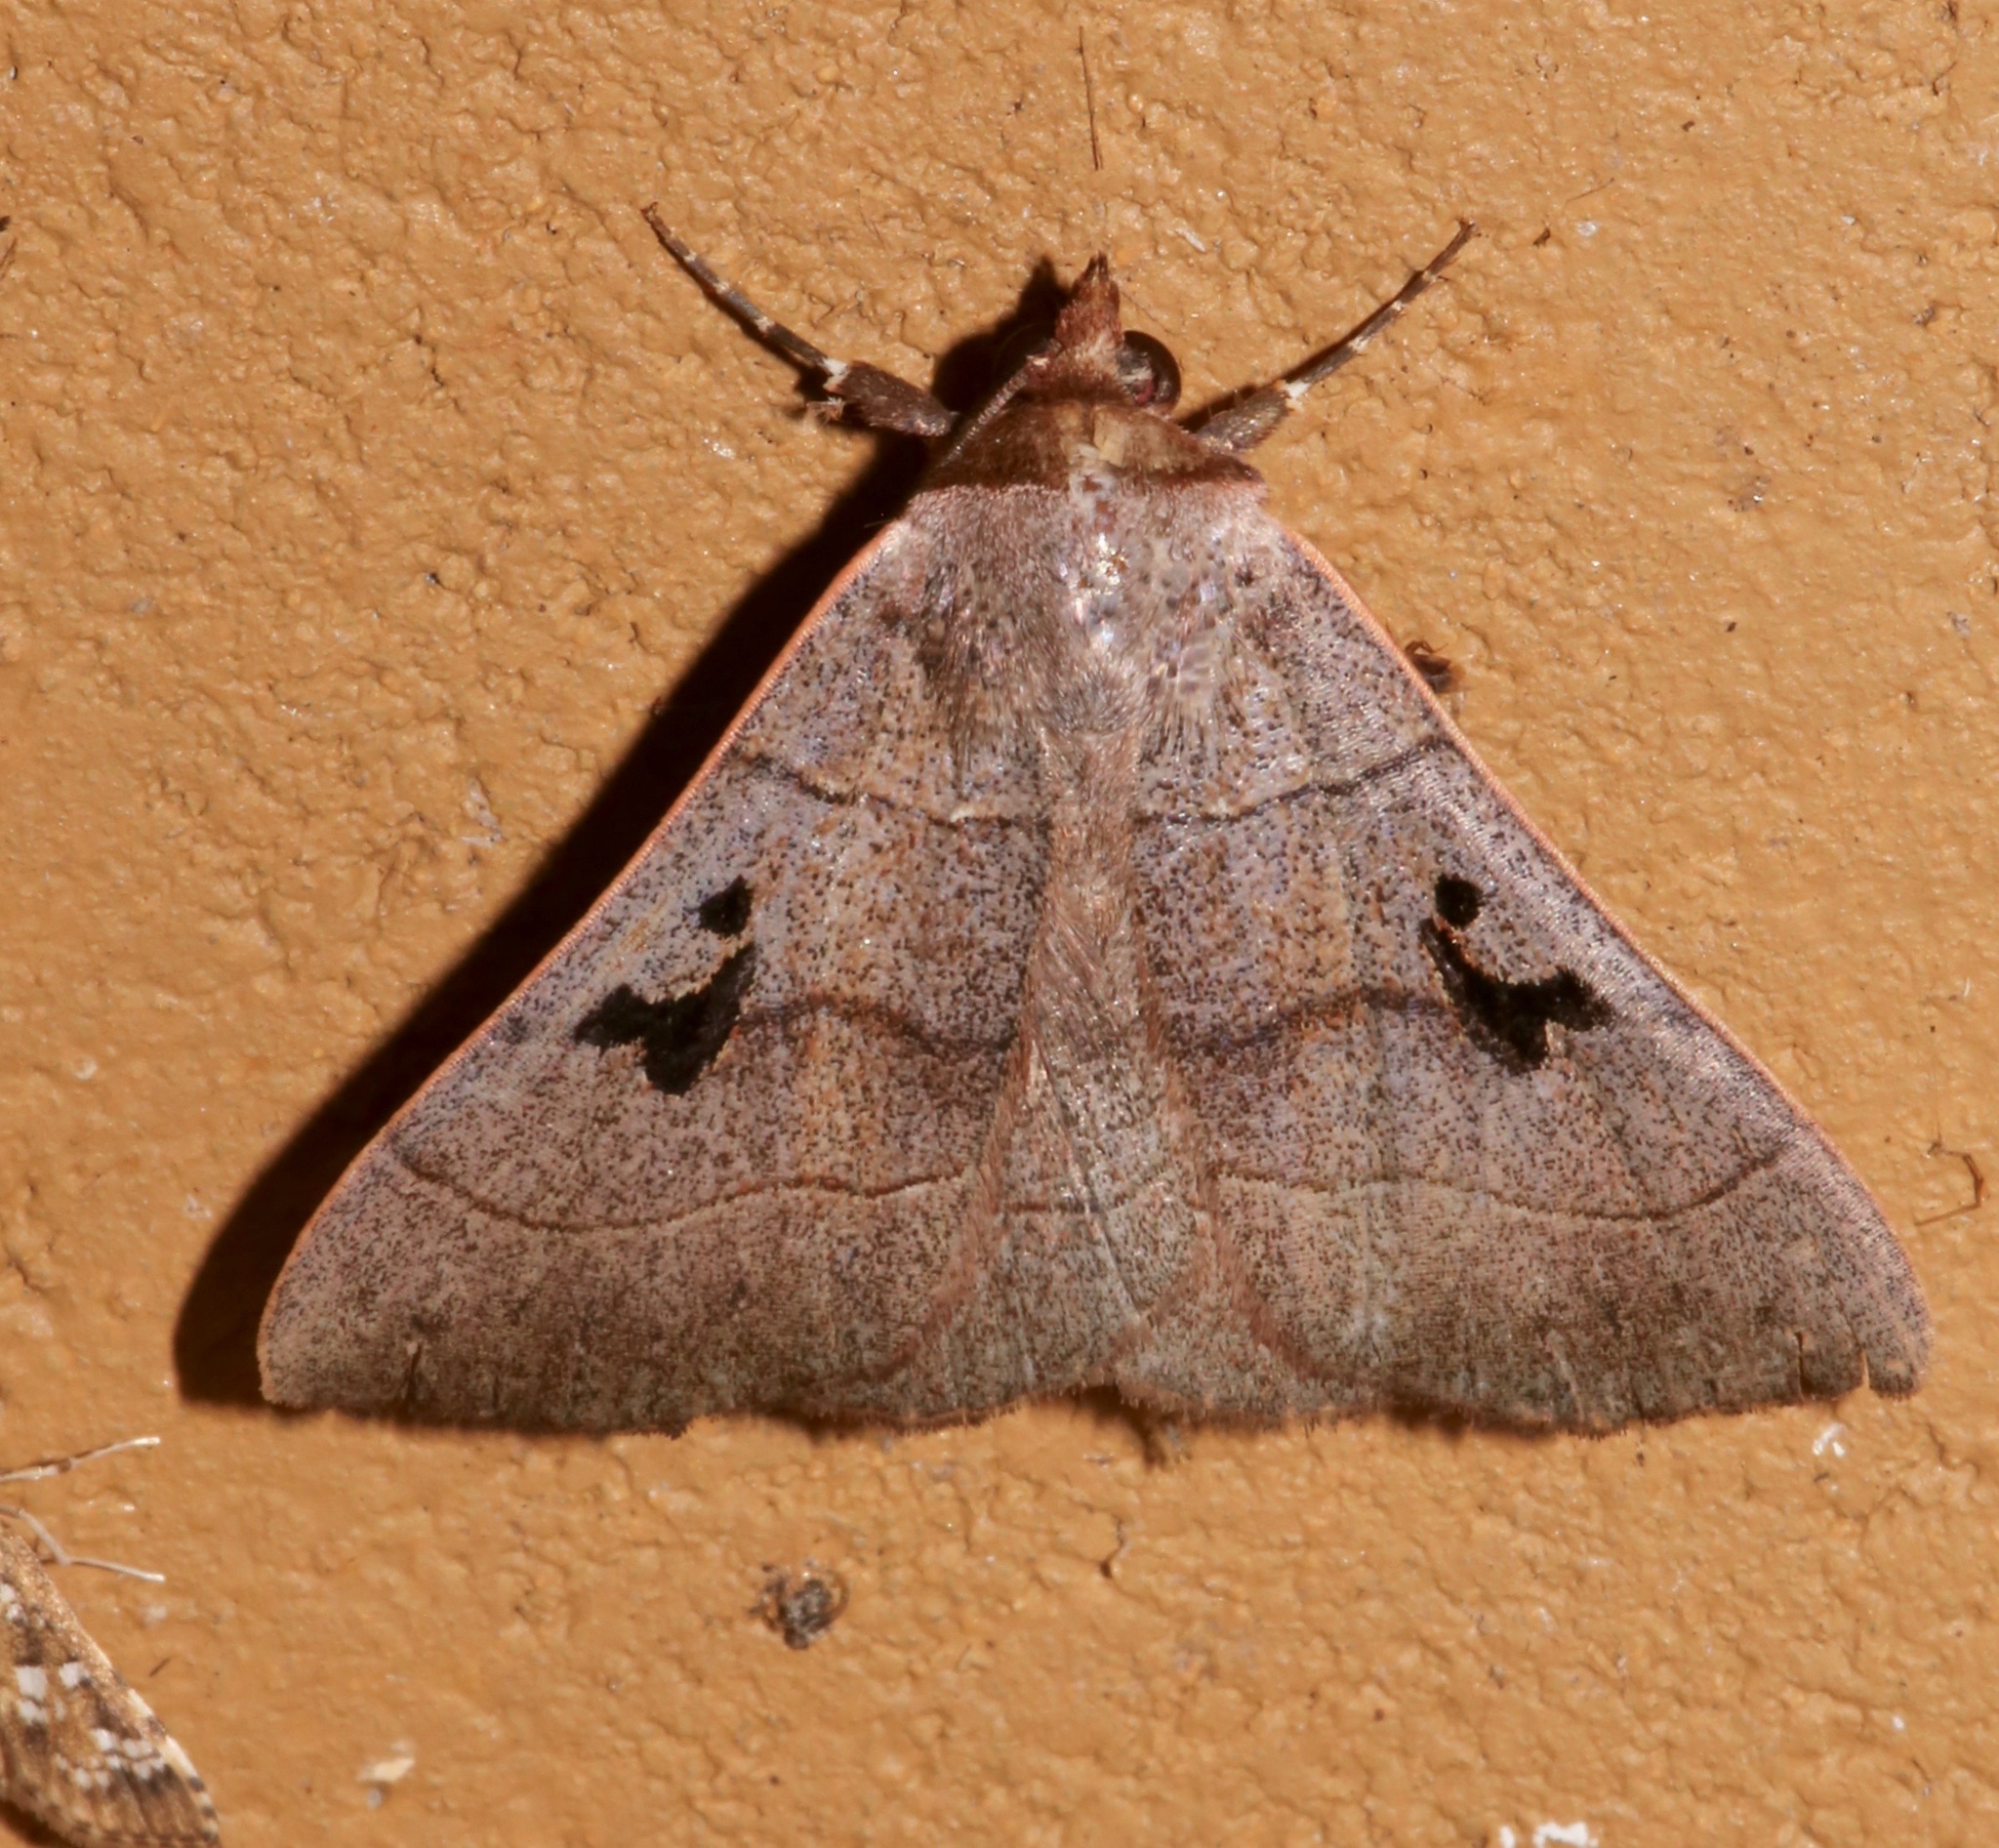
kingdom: Animalia
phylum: Arthropoda
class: Insecta
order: Lepidoptera
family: Erebidae
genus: Panopoda
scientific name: Panopoda carneicosta
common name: Brown panopoda moth
